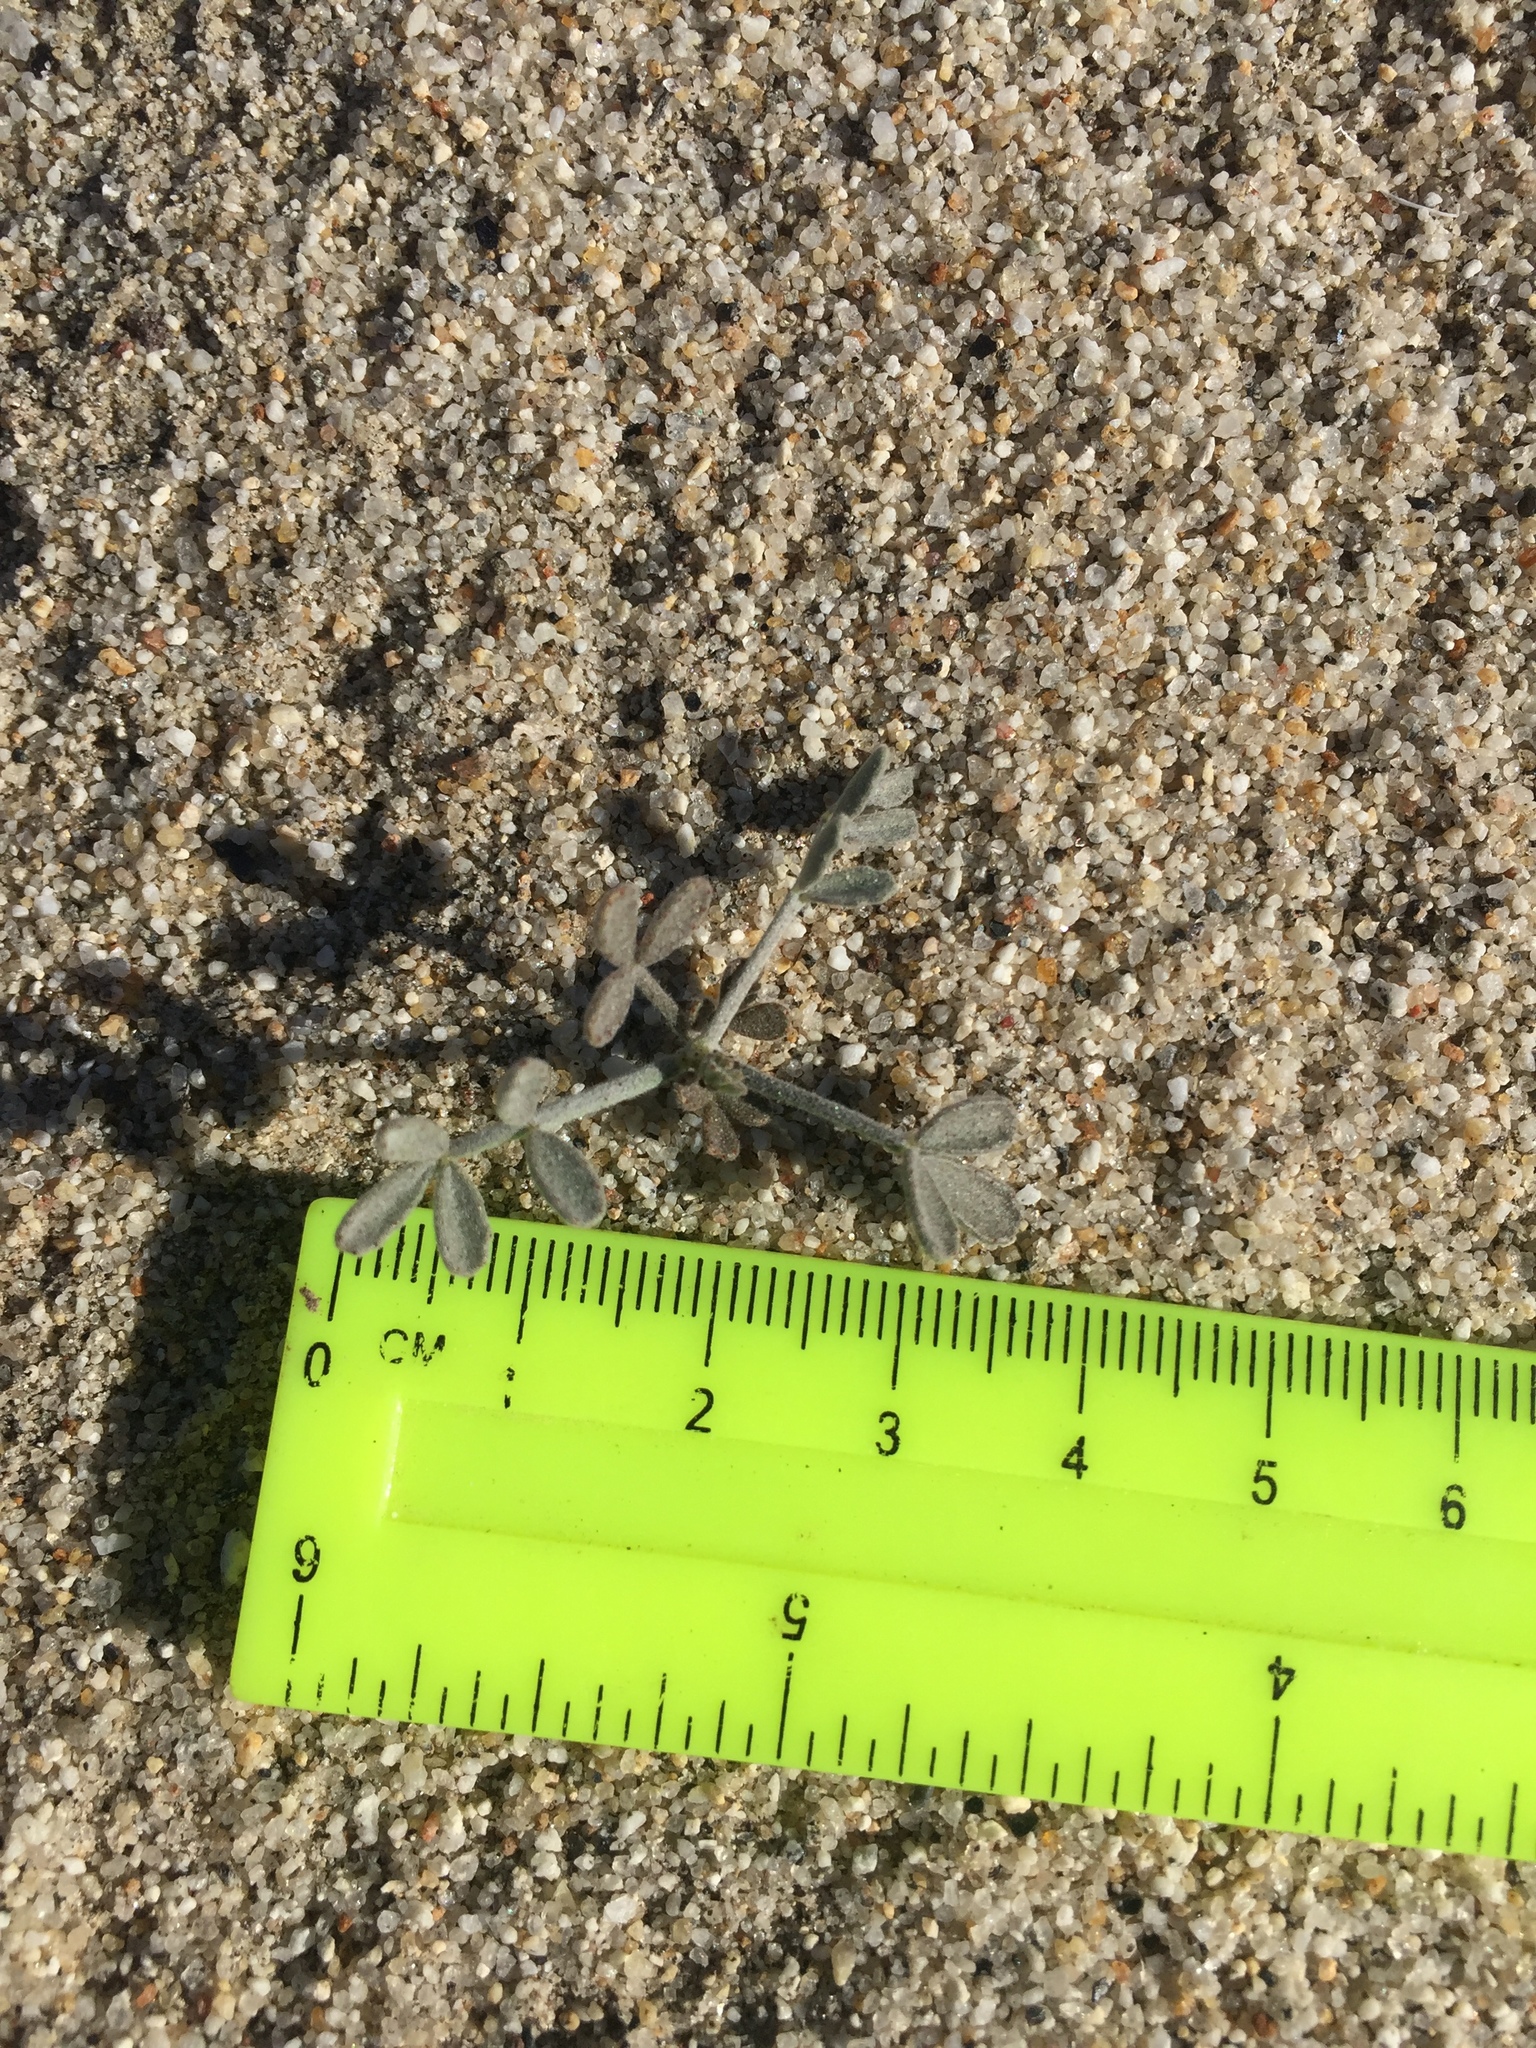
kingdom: Plantae
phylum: Tracheophyta
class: Magnoliopsida
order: Fabales
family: Fabaceae
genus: Psorothamnus
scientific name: Psorothamnus emoryi
